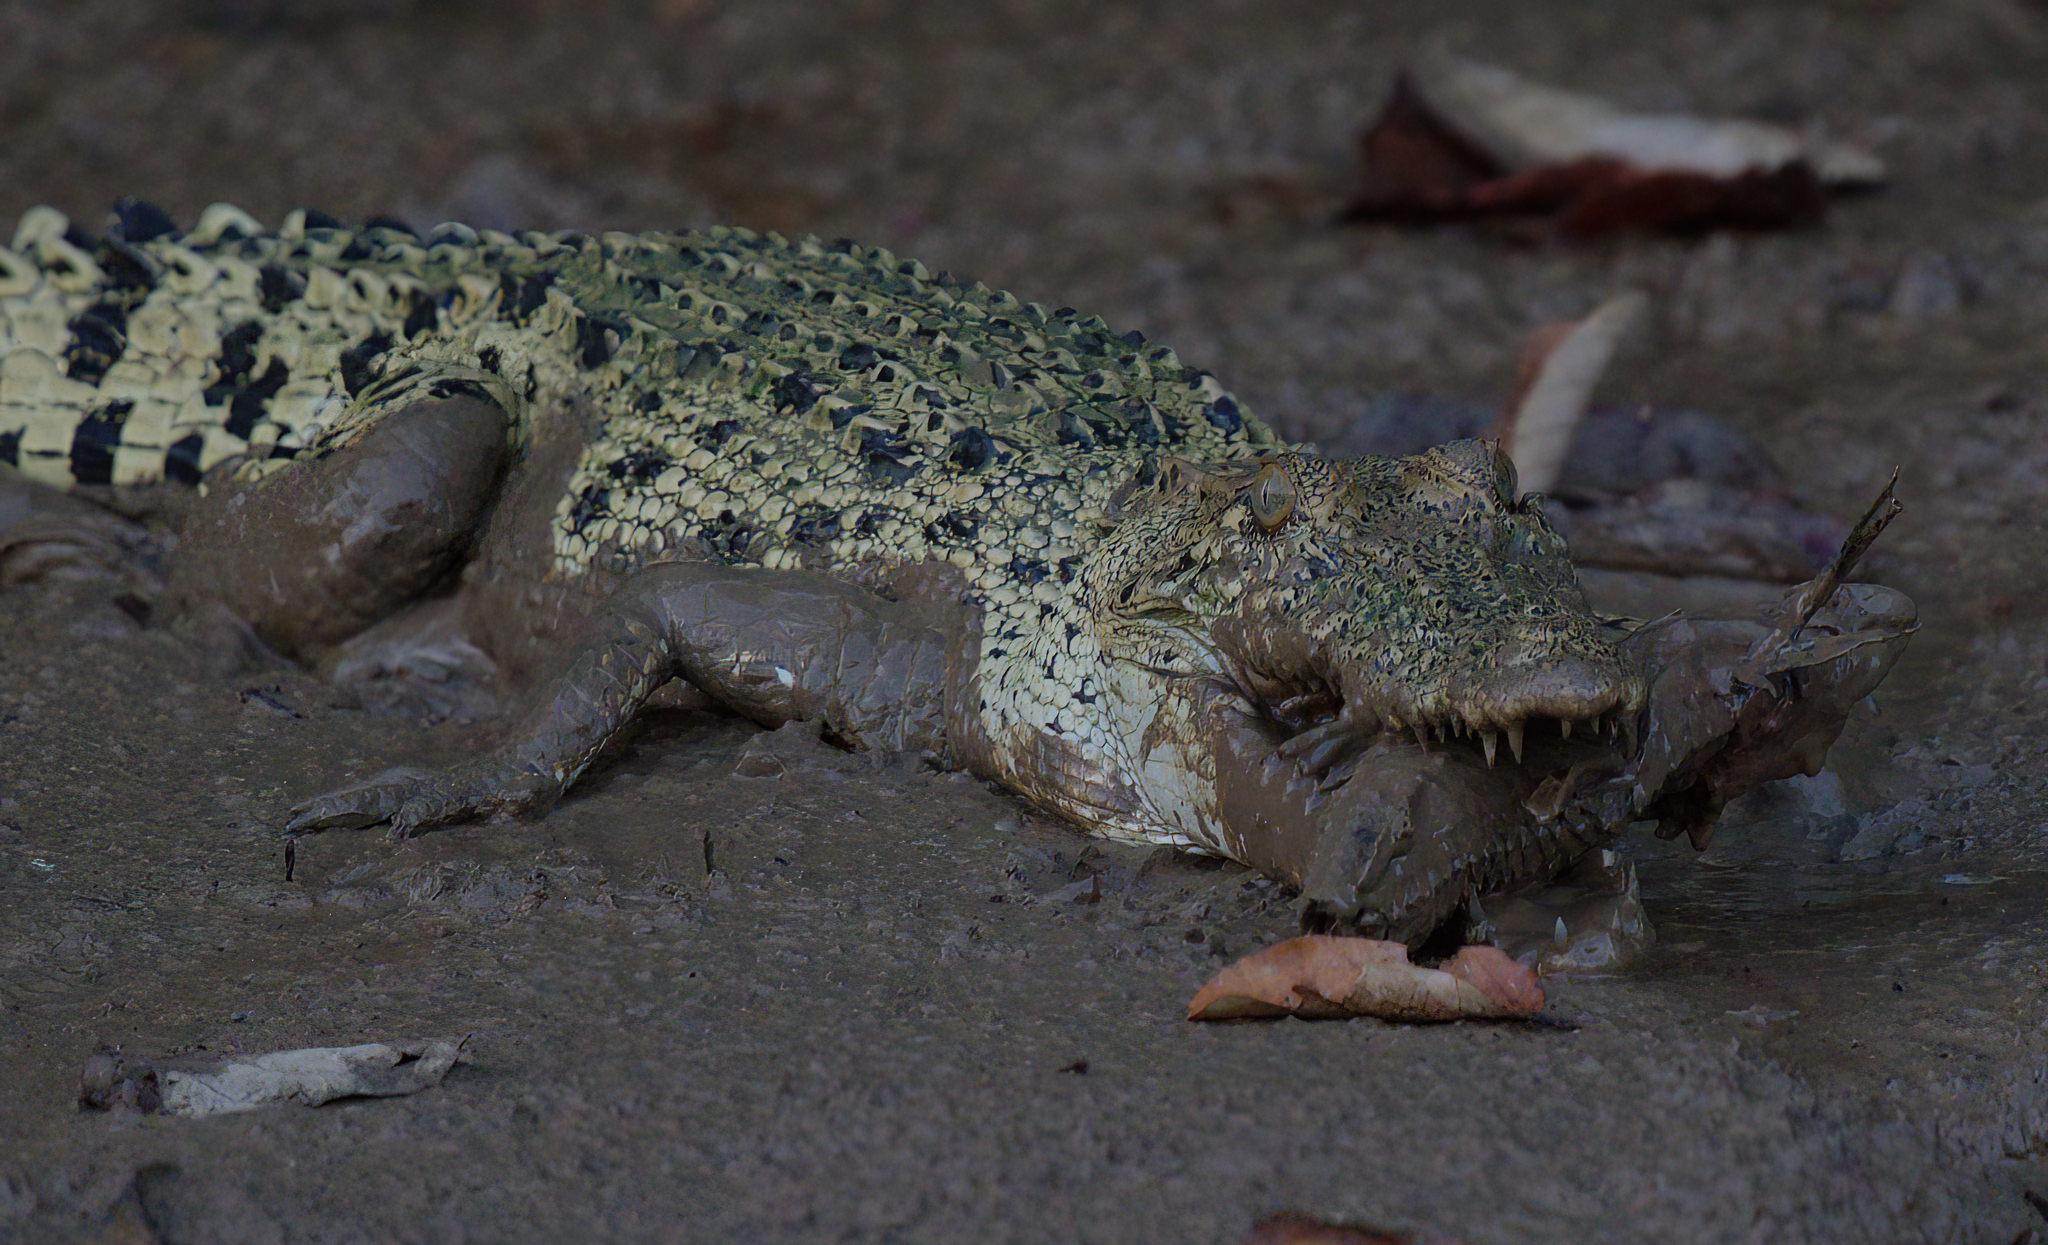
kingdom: Animalia
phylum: Chordata
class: Crocodylia
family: Crocodylidae
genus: Crocodylus
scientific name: Crocodylus porosus
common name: Saltwater crocodile
